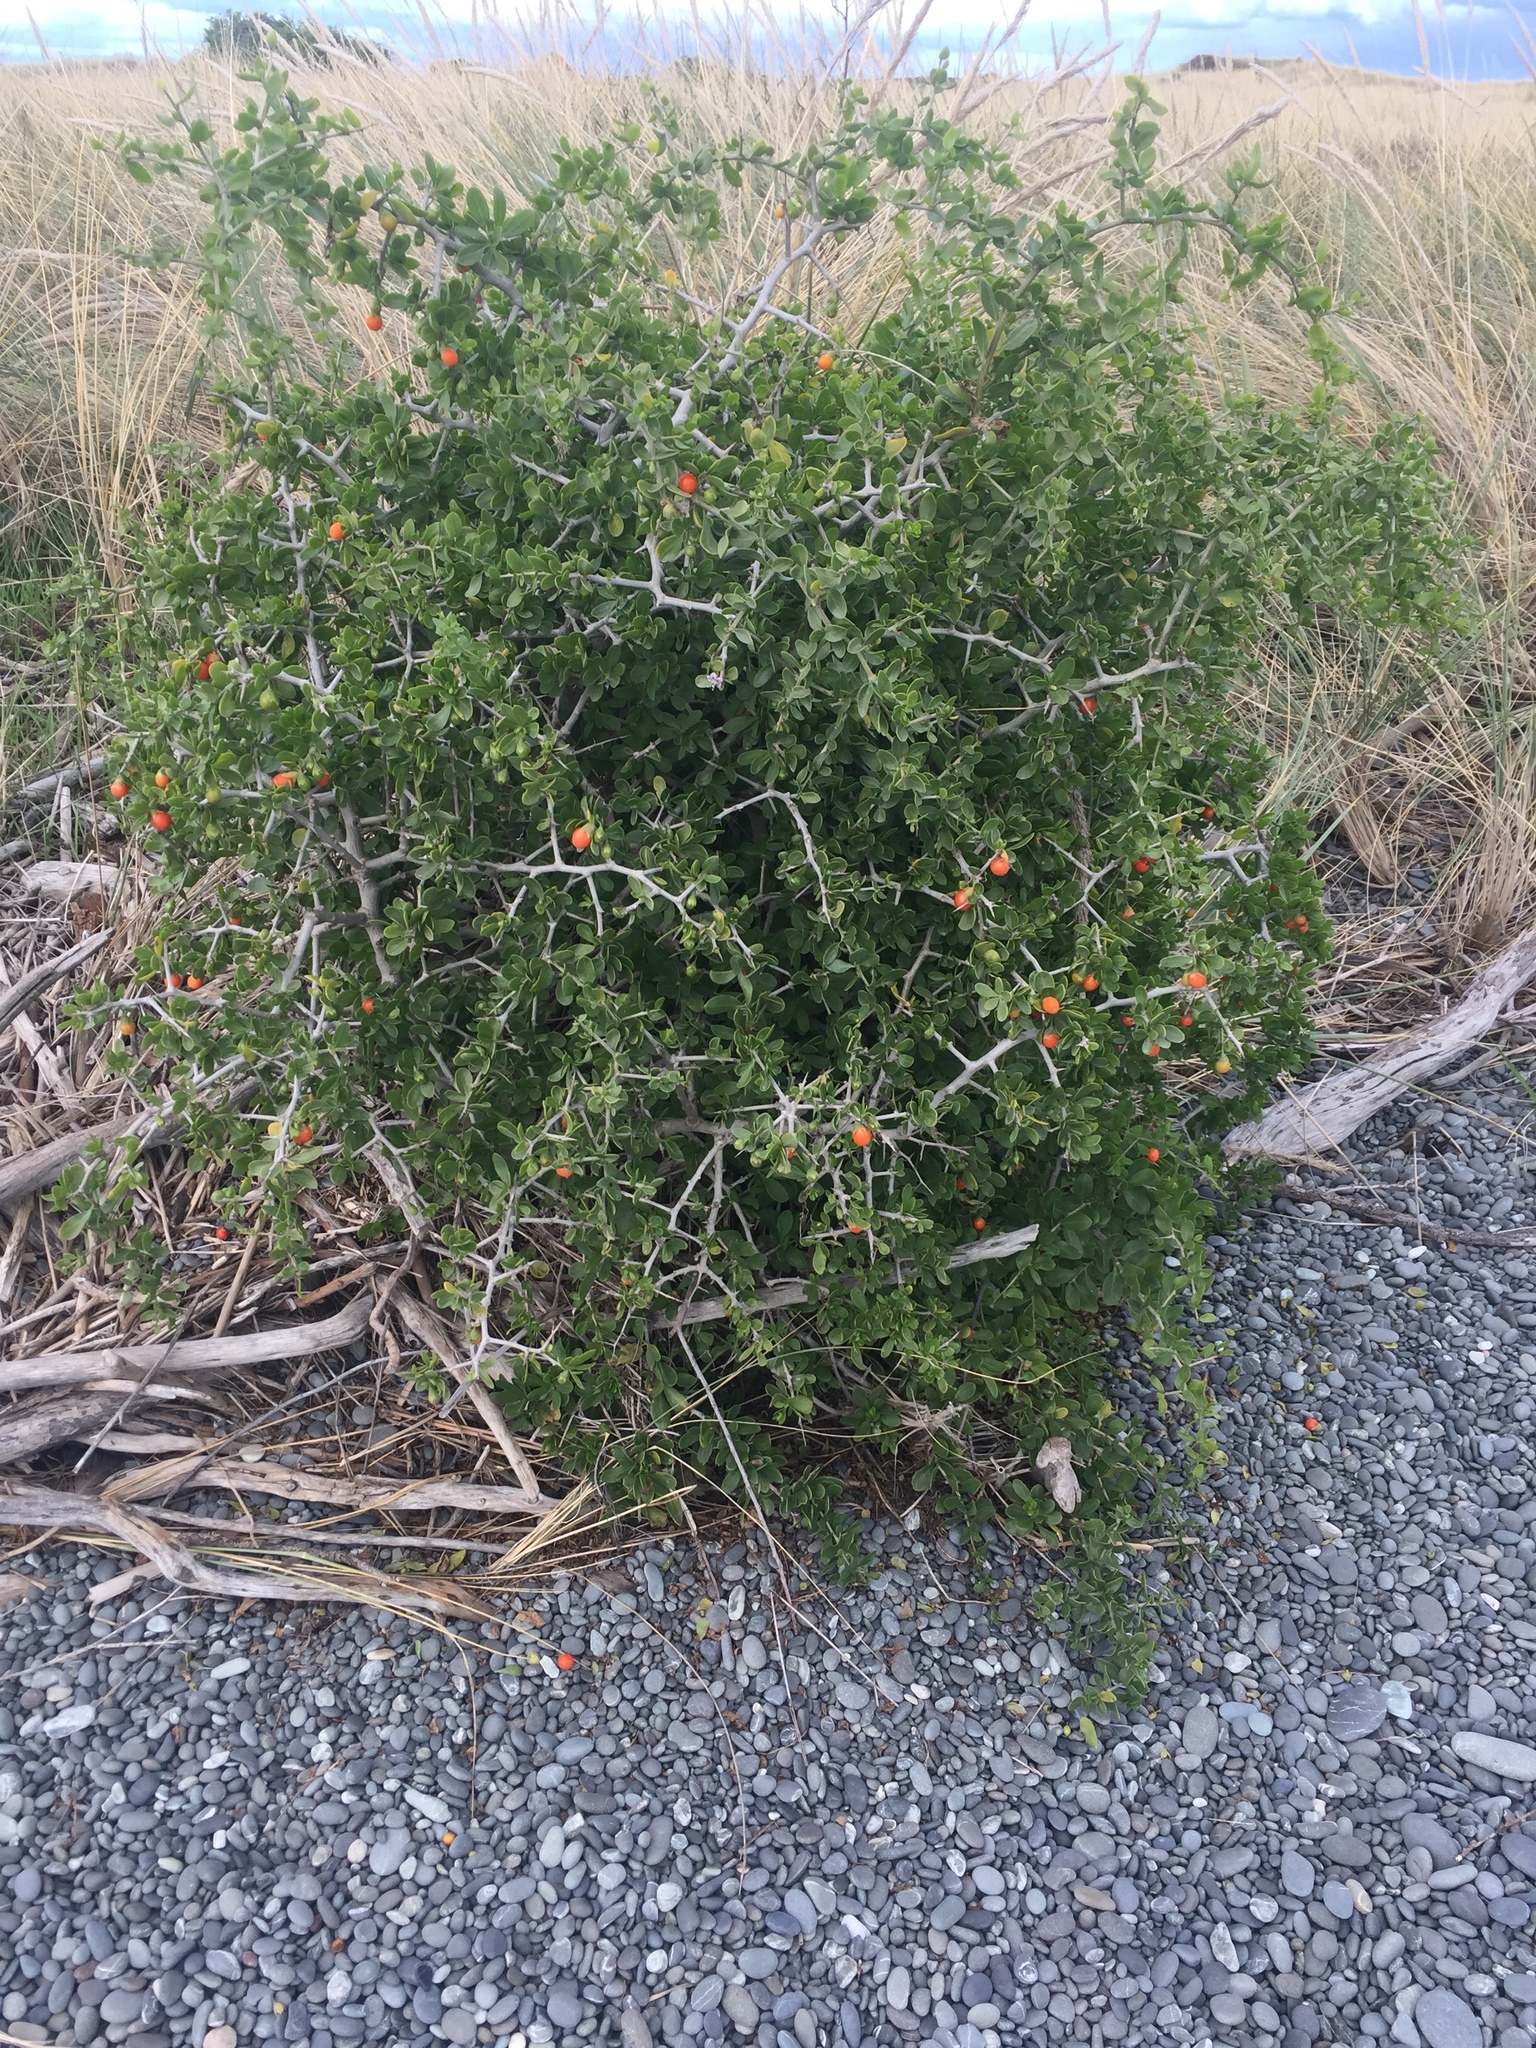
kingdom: Plantae
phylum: Tracheophyta
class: Magnoliopsida
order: Solanales
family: Solanaceae
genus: Lycium
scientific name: Lycium ferocissimum
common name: African boxthorn
